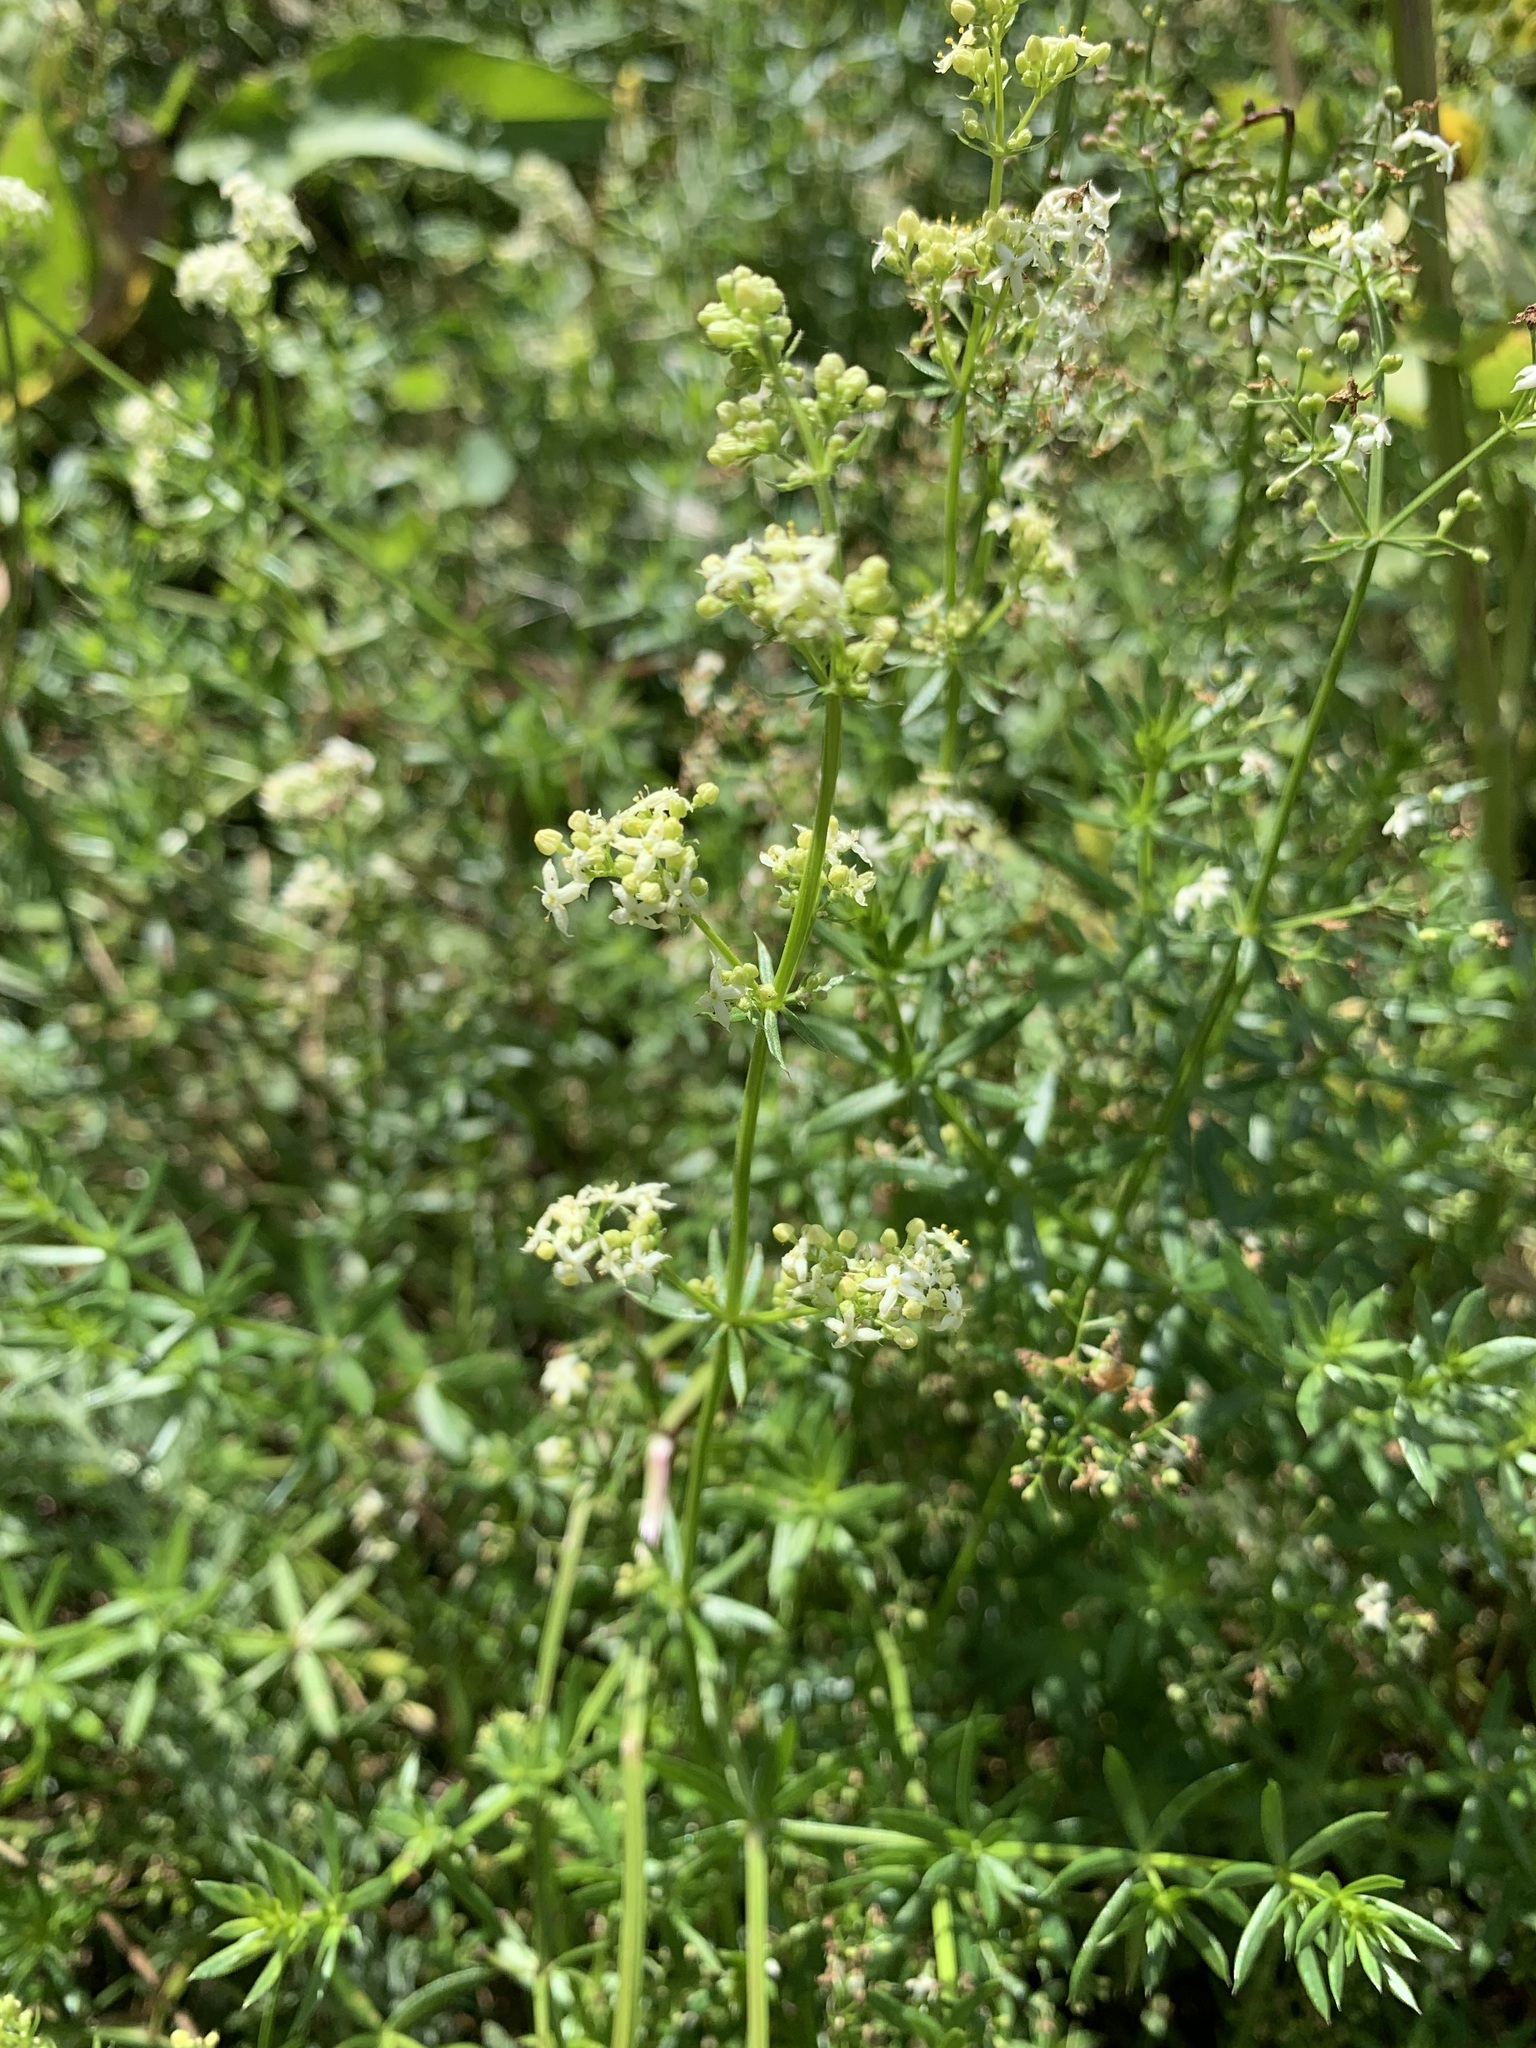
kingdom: Plantae
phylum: Tracheophyta
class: Magnoliopsida
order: Gentianales
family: Rubiaceae
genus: Galium
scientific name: Galium mollugo
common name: Hedge bedstraw
